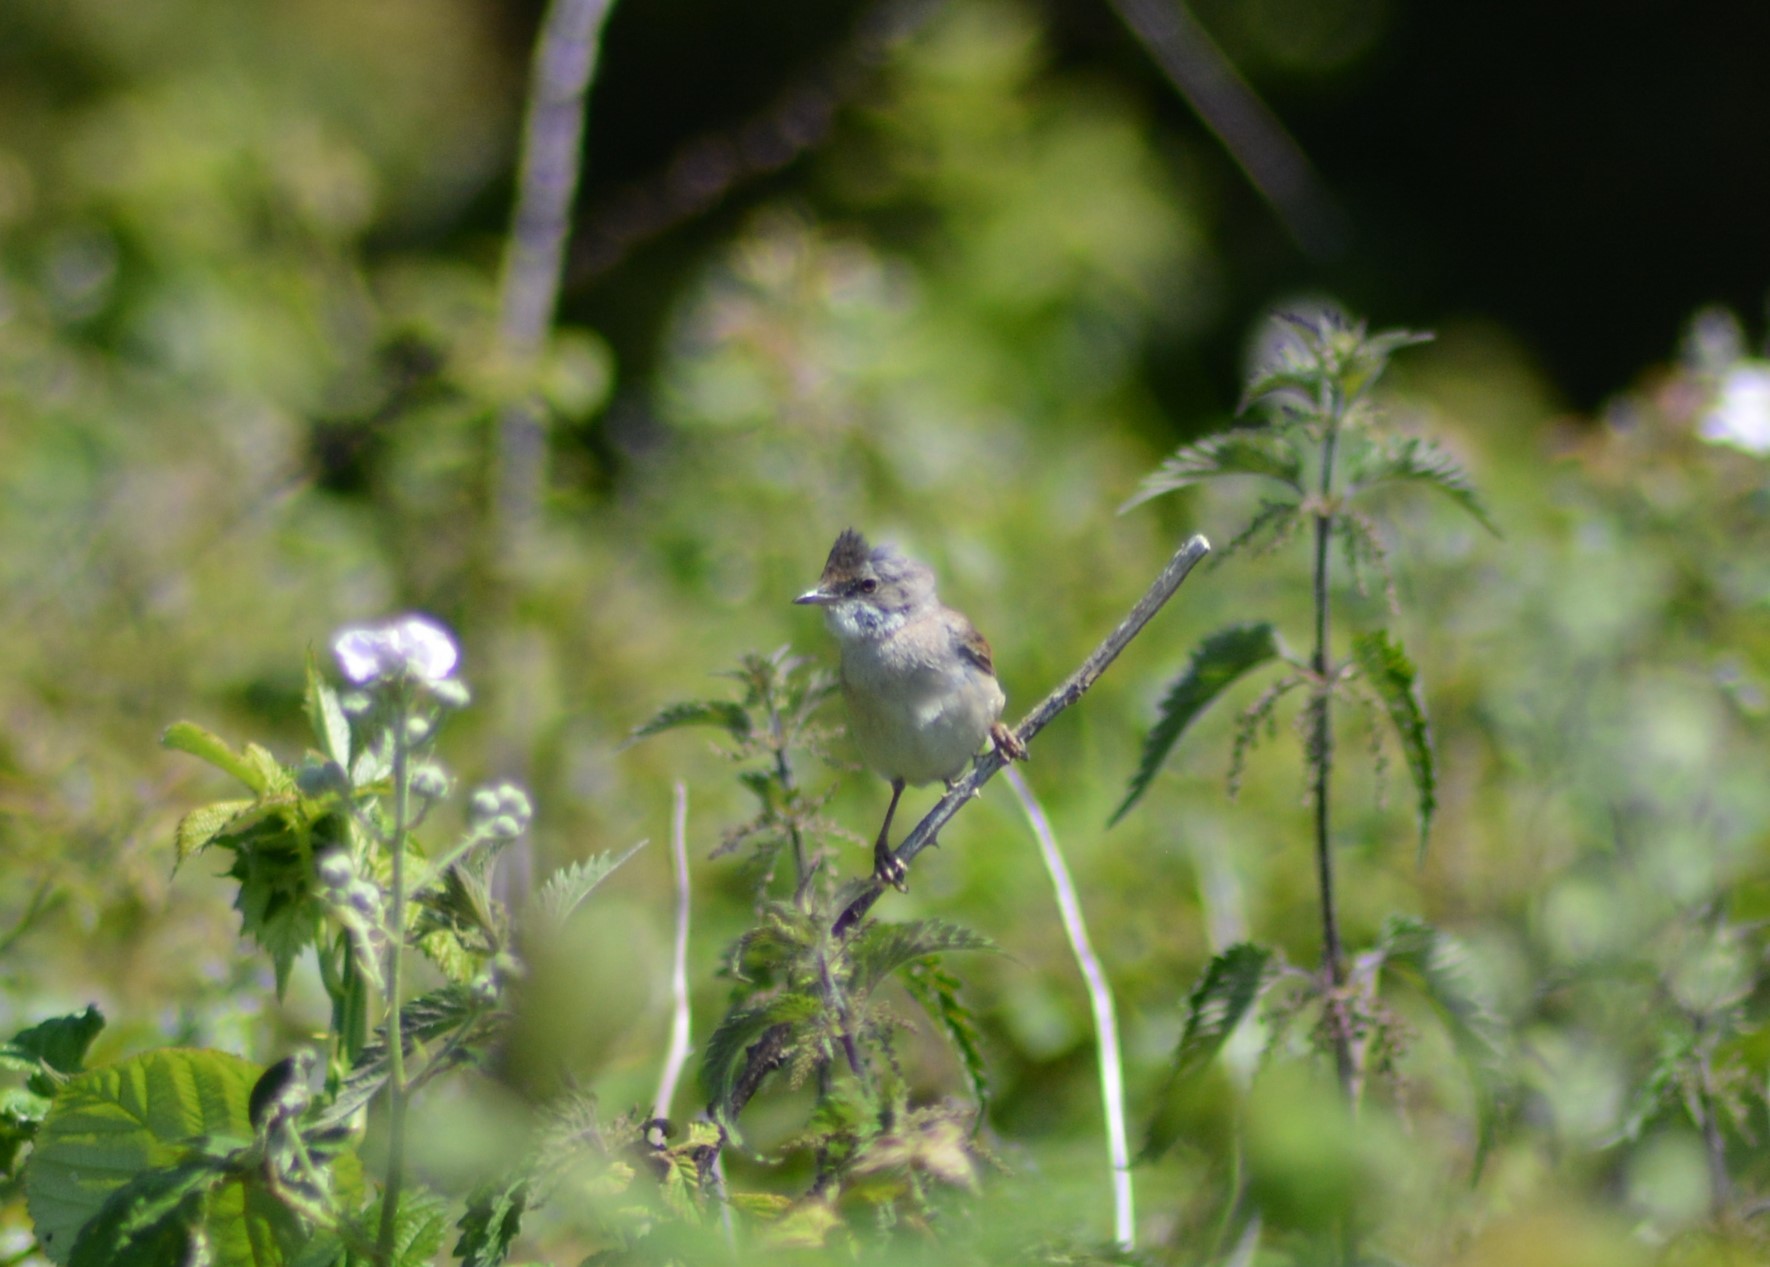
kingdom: Animalia
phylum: Chordata
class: Aves
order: Passeriformes
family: Sylviidae
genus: Sylvia
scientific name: Sylvia communis
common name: Common whitethroat
